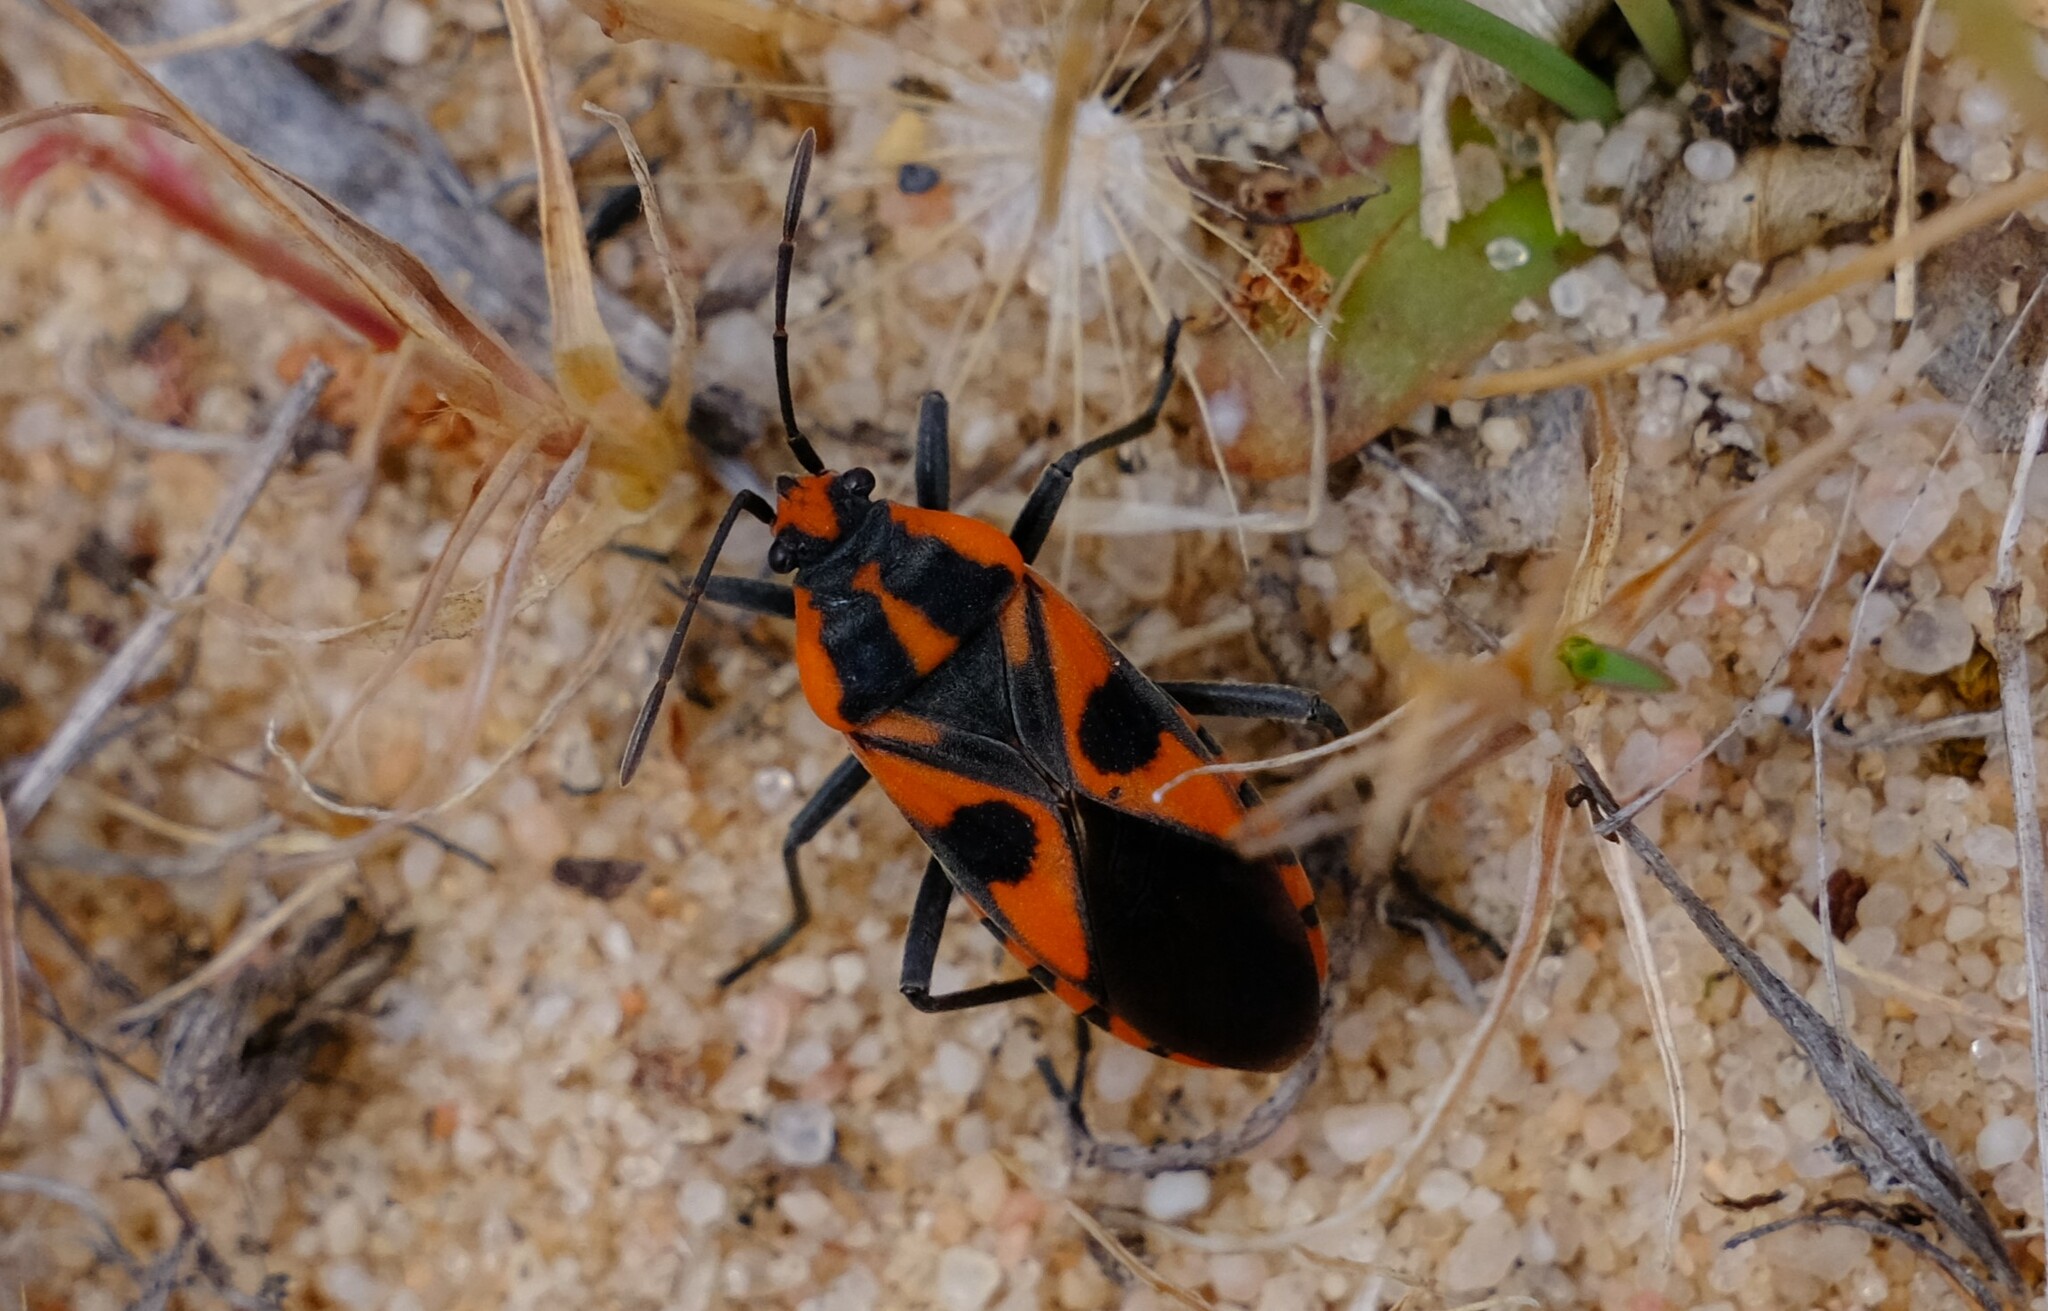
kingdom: Animalia
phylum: Arthropoda
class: Insecta
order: Hemiptera
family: Lygaeidae
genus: Spilostethus
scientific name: Spilostethus pacificus
